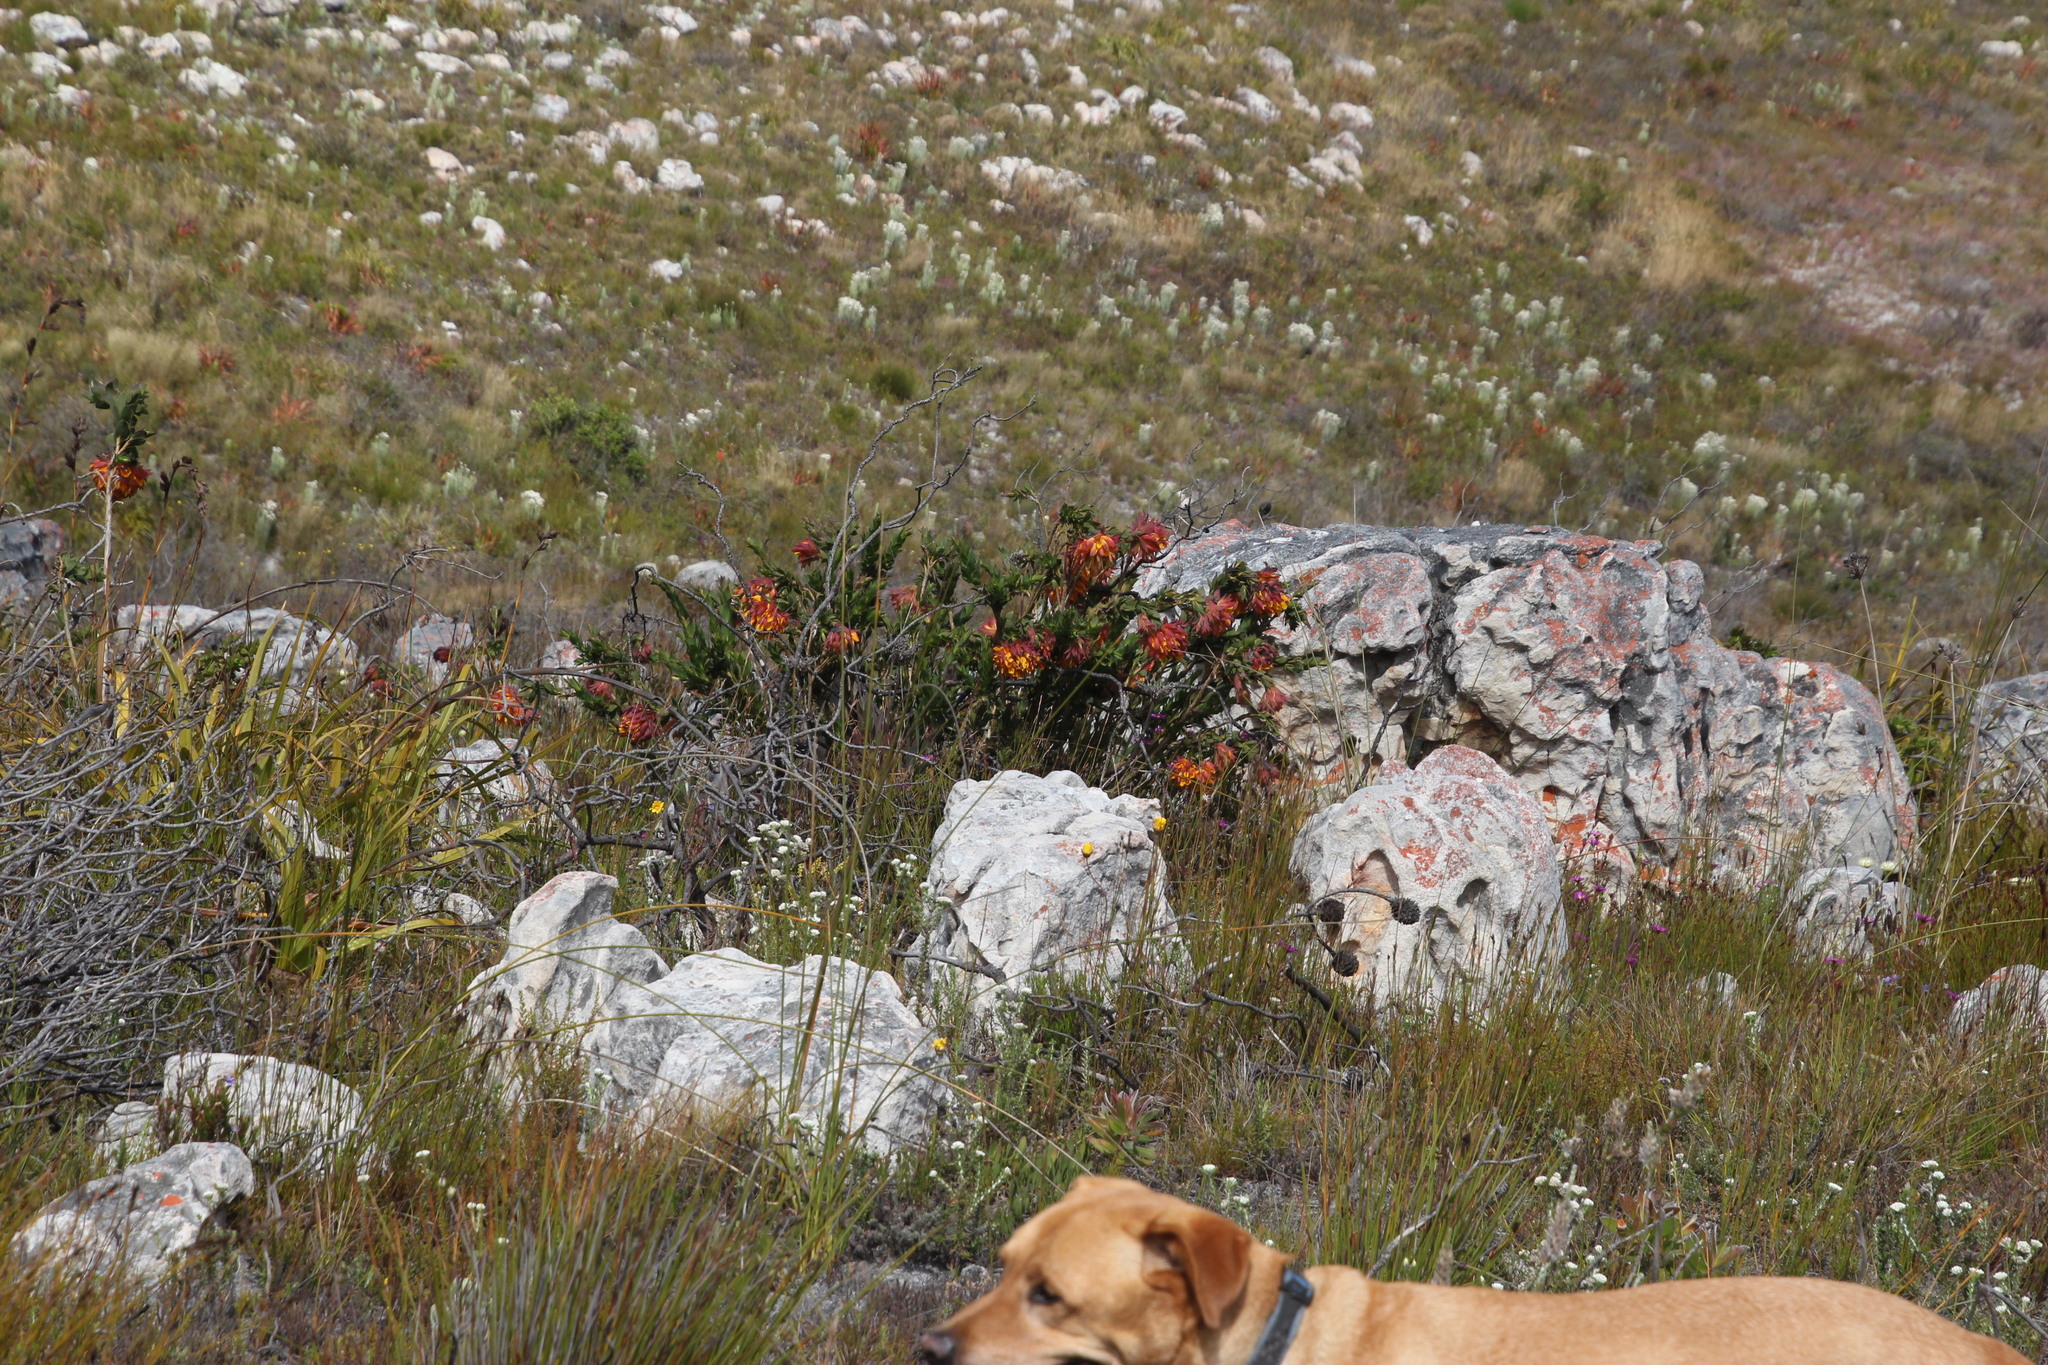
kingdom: Plantae
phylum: Tracheophyta
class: Magnoliopsida
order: Fabales
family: Fabaceae
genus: Liparia
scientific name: Liparia splendens
